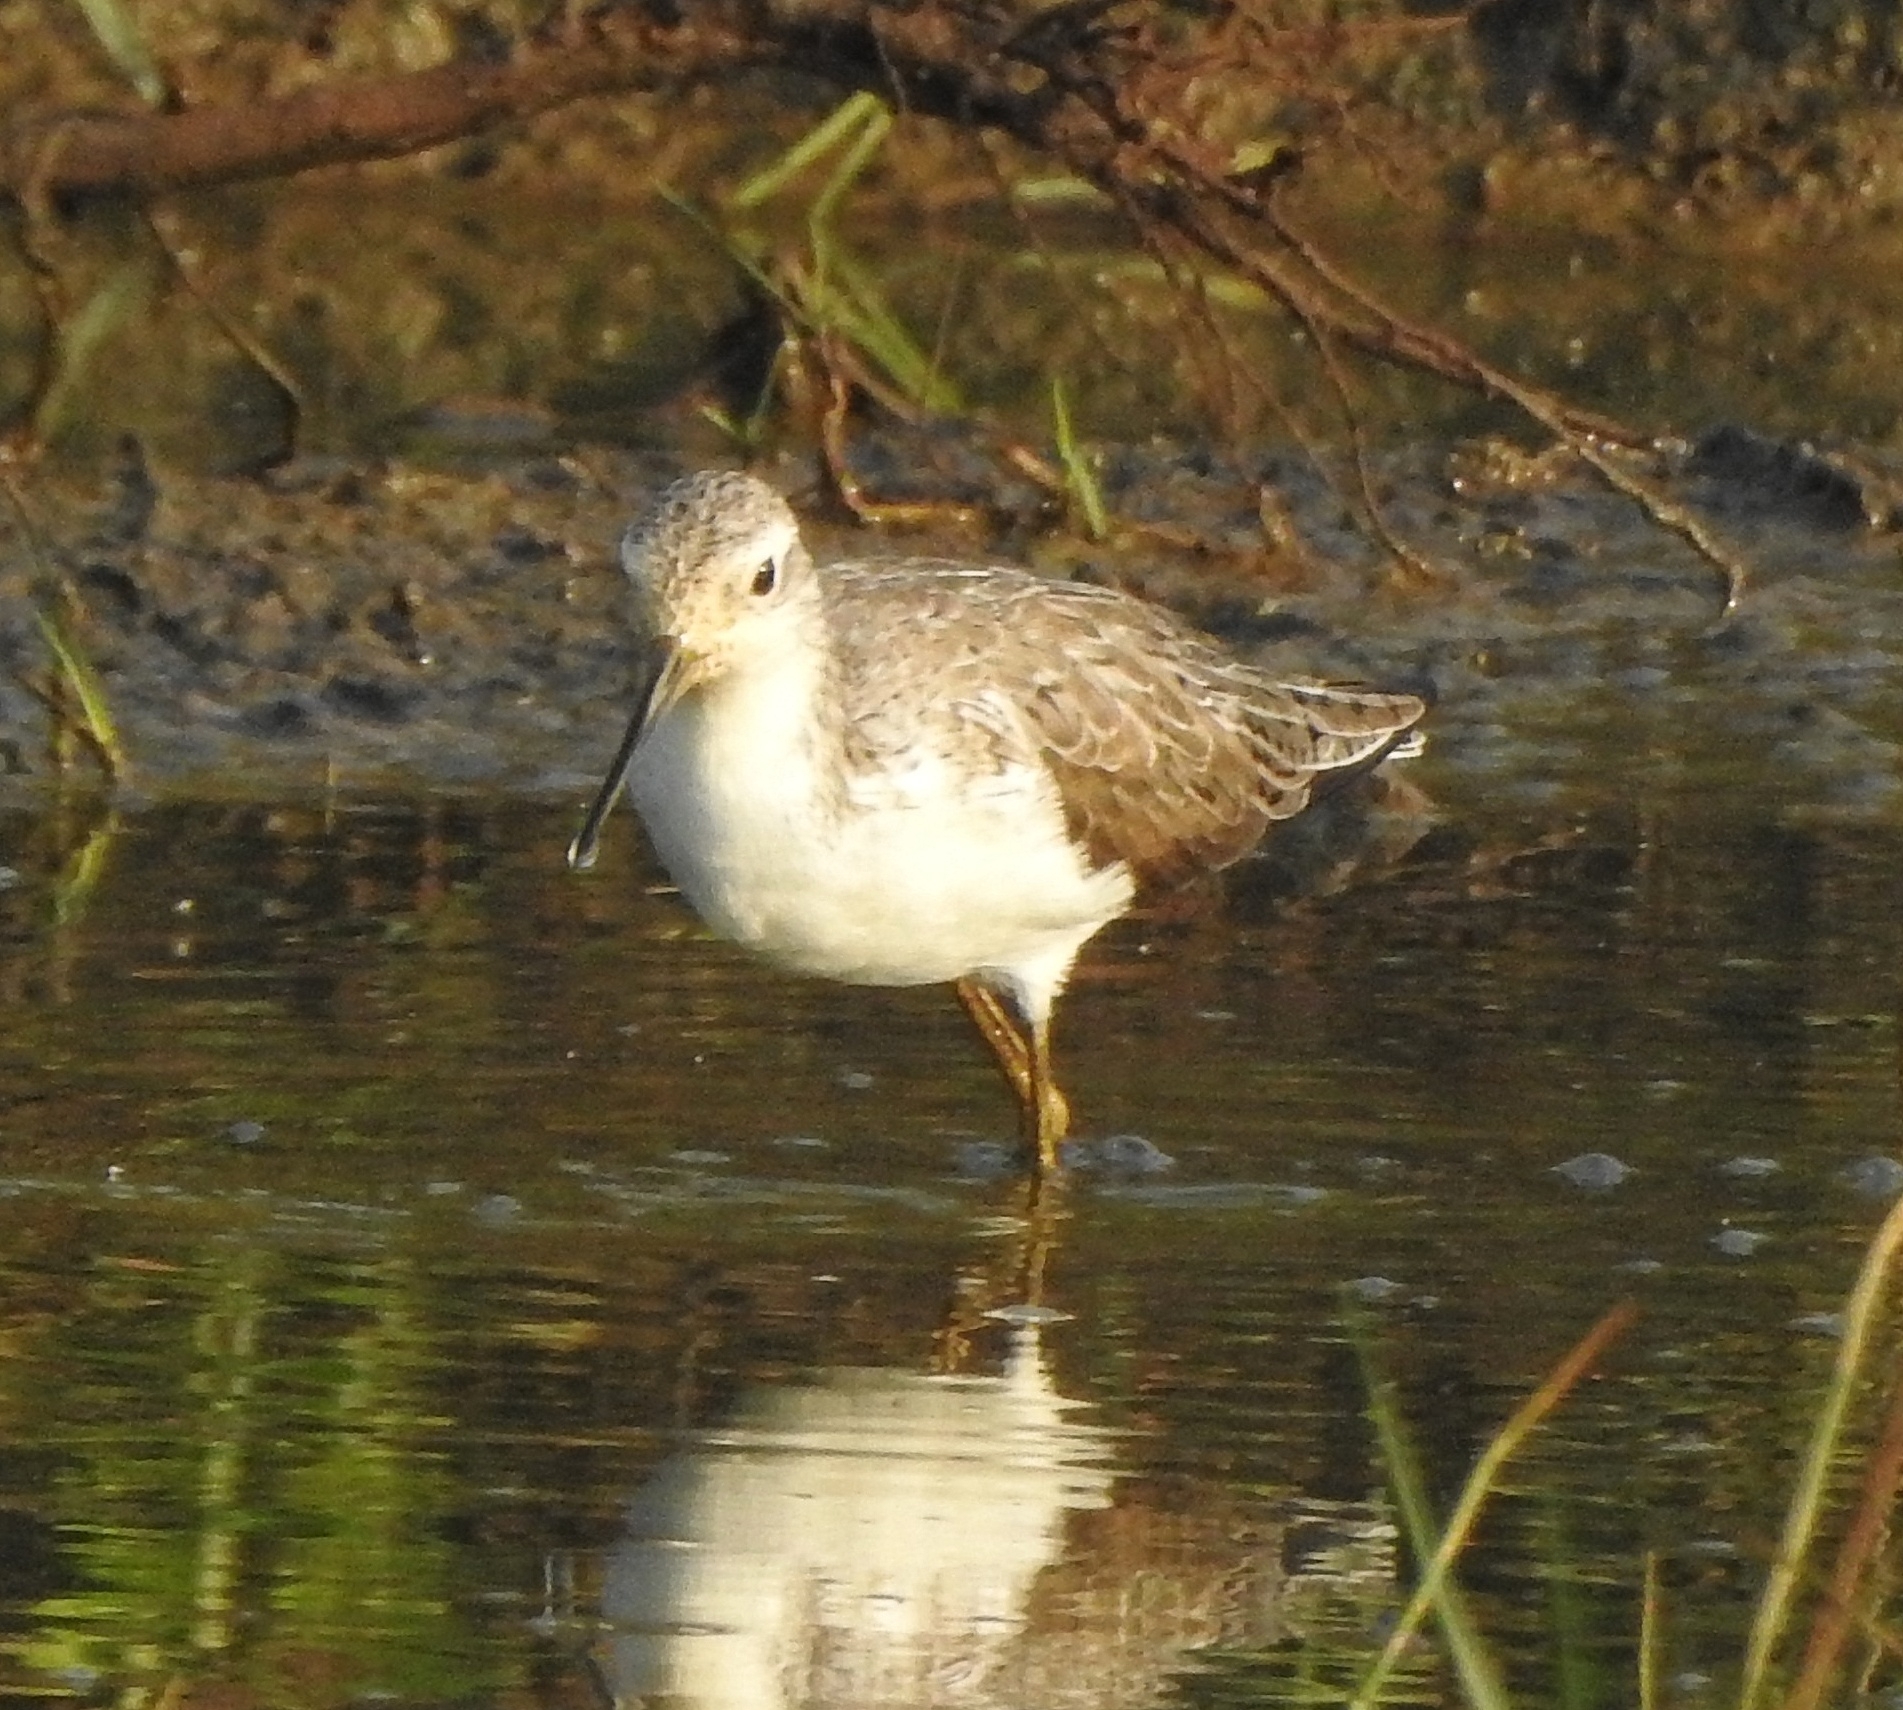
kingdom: Animalia
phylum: Chordata
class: Aves
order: Charadriiformes
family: Scolopacidae
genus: Tringa
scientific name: Tringa stagnatilis
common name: Marsh sandpiper
